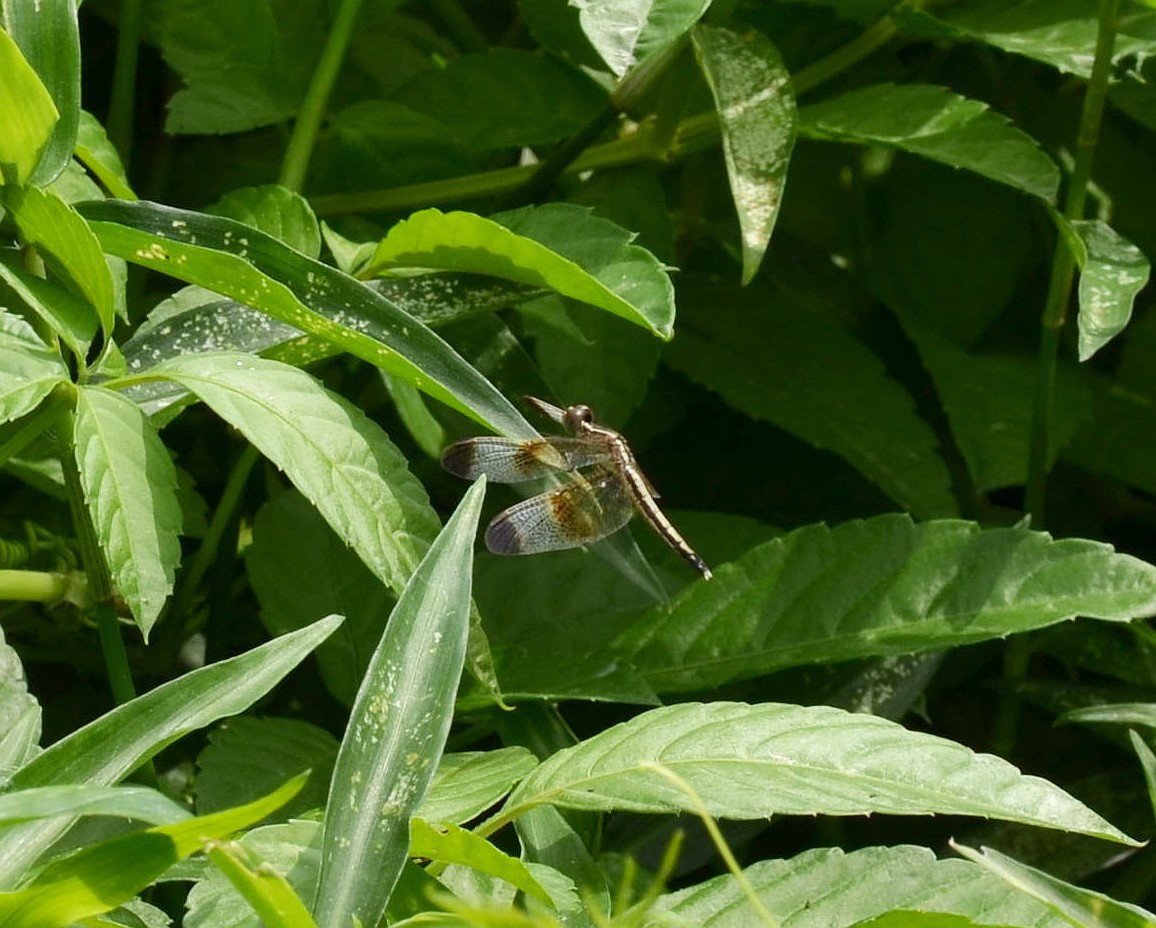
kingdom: Animalia
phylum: Arthropoda
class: Insecta
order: Odonata
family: Libellulidae
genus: Neurothemis
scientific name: Neurothemis tullia
